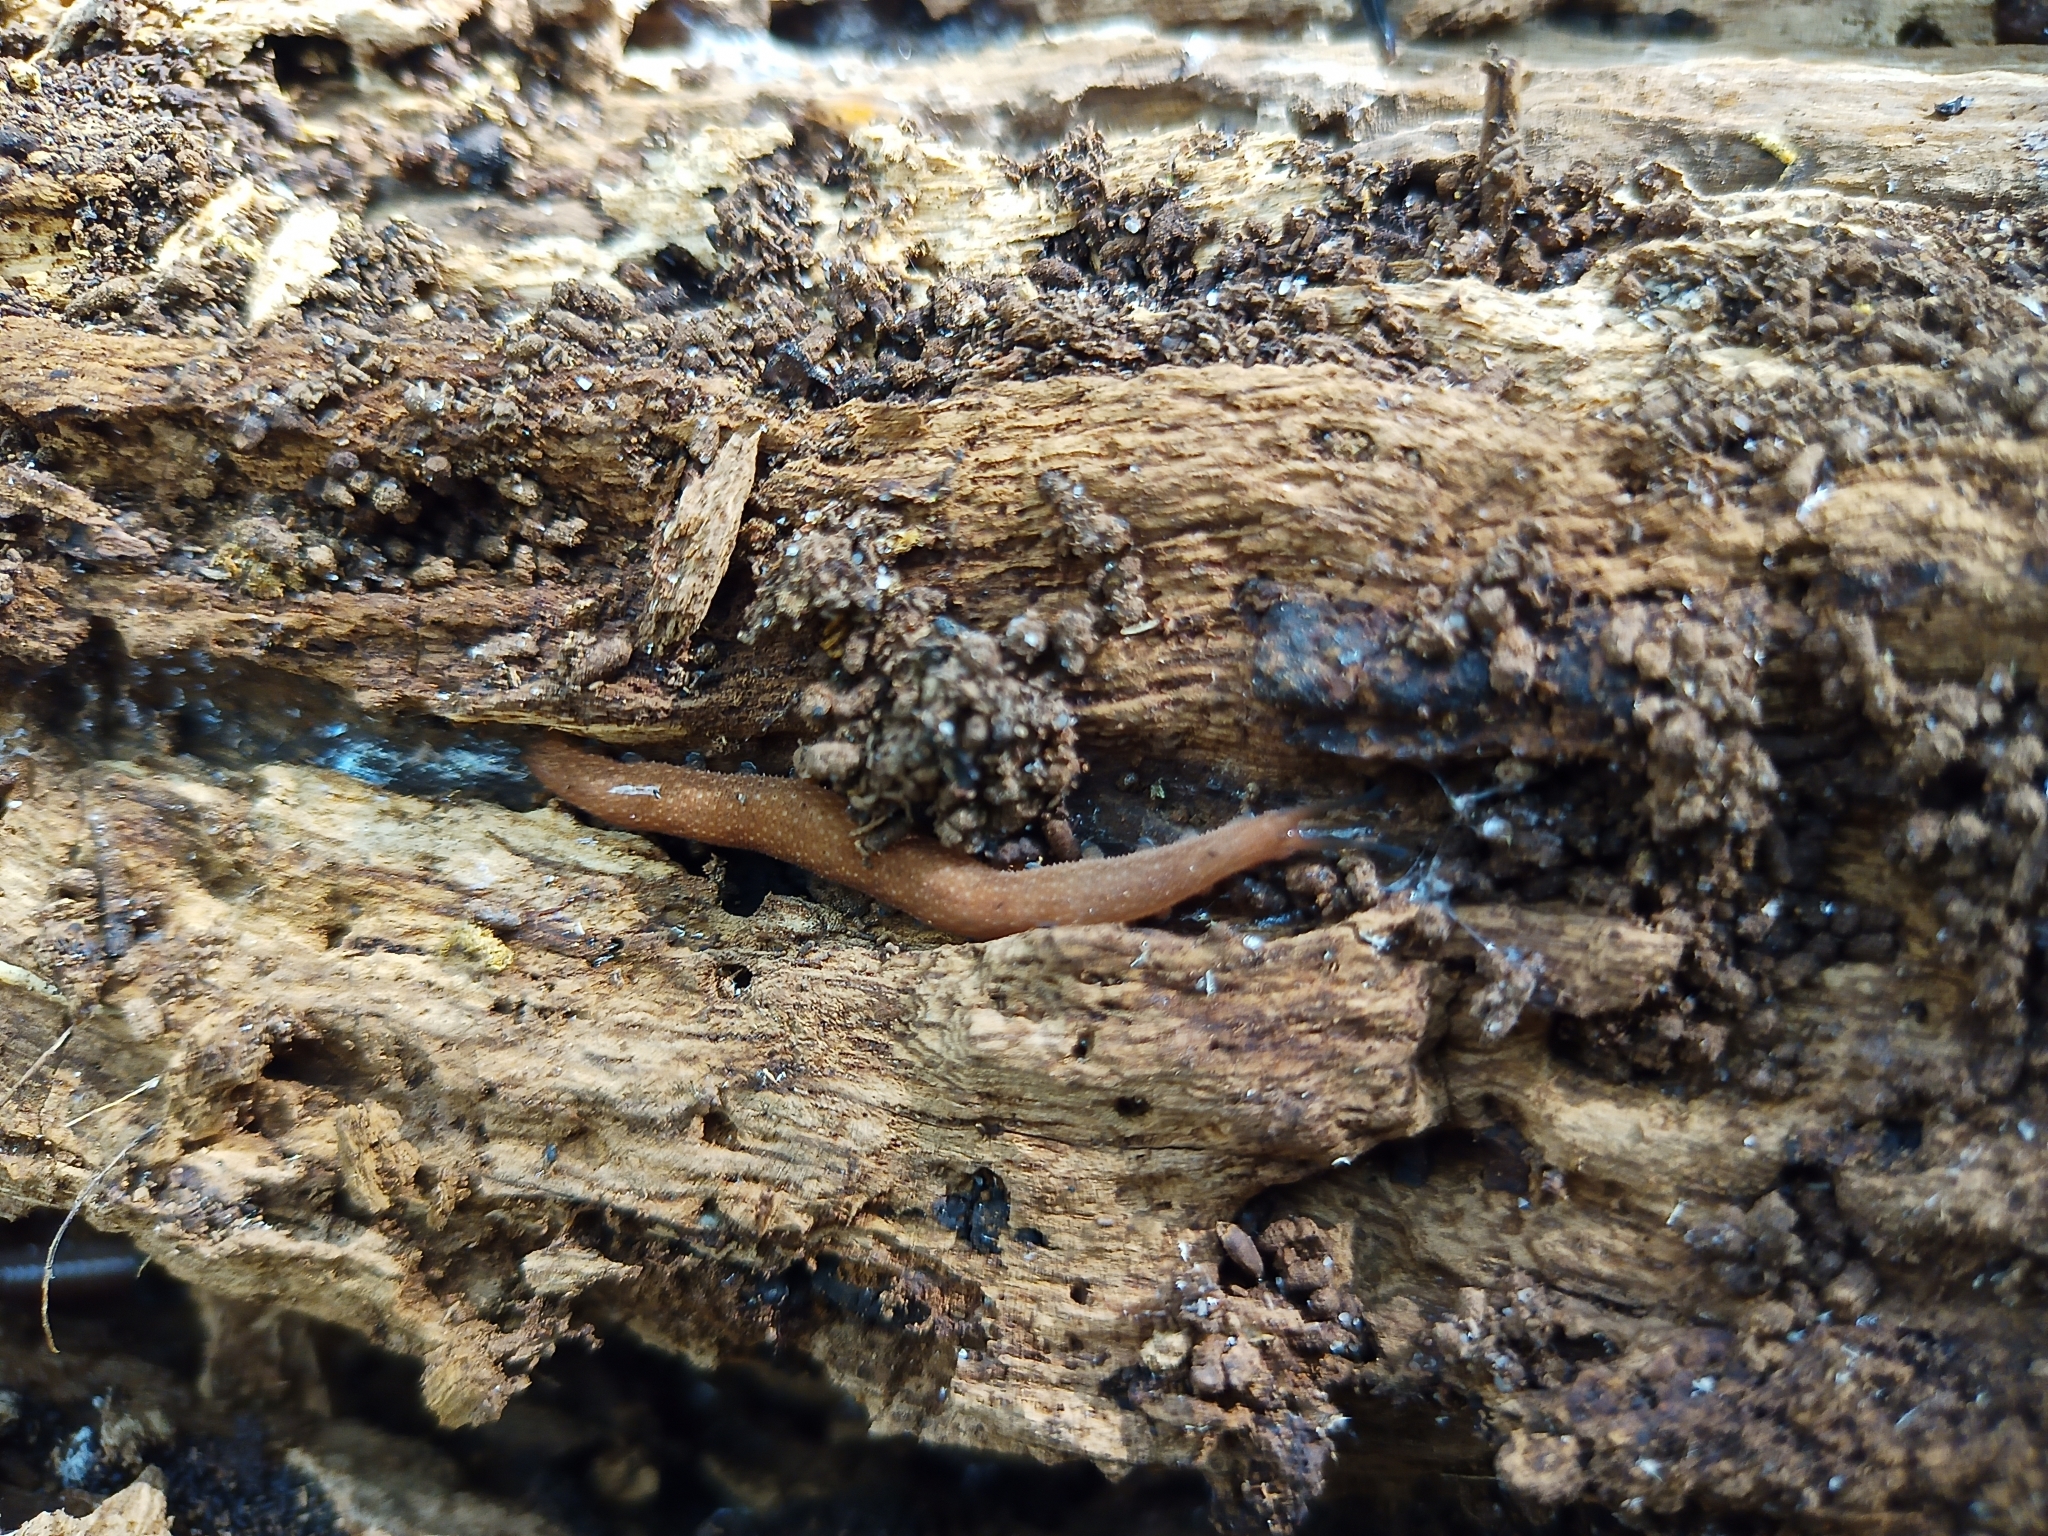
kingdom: Animalia
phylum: Onychophora
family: Peripatopsidae
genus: Kumbadjena
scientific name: Kumbadjena extrema
